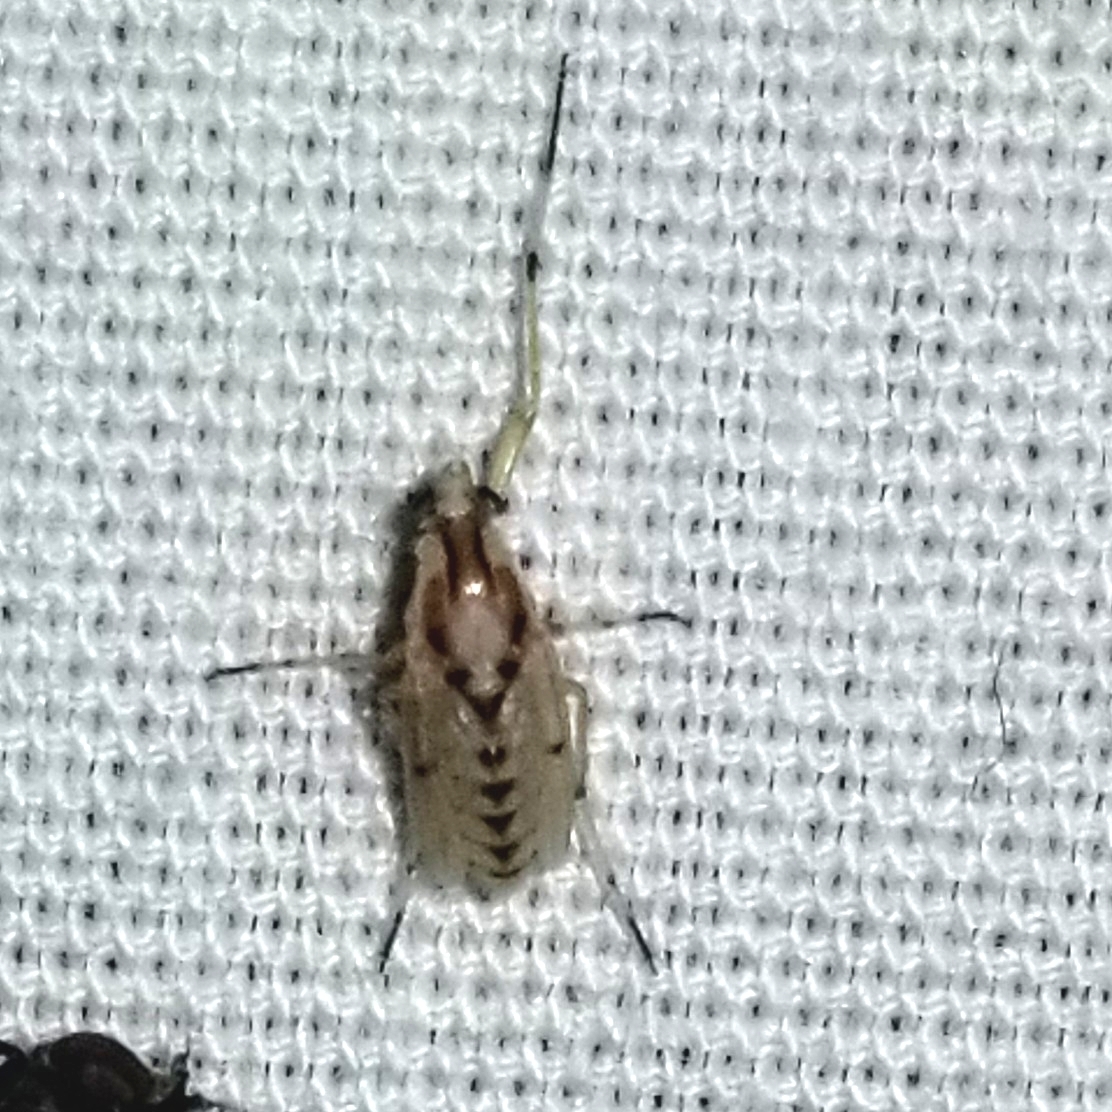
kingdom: Animalia
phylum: Arthropoda
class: Insecta
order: Diptera
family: Chironomidae
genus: Coelotanypus
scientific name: Coelotanypus concinnus
